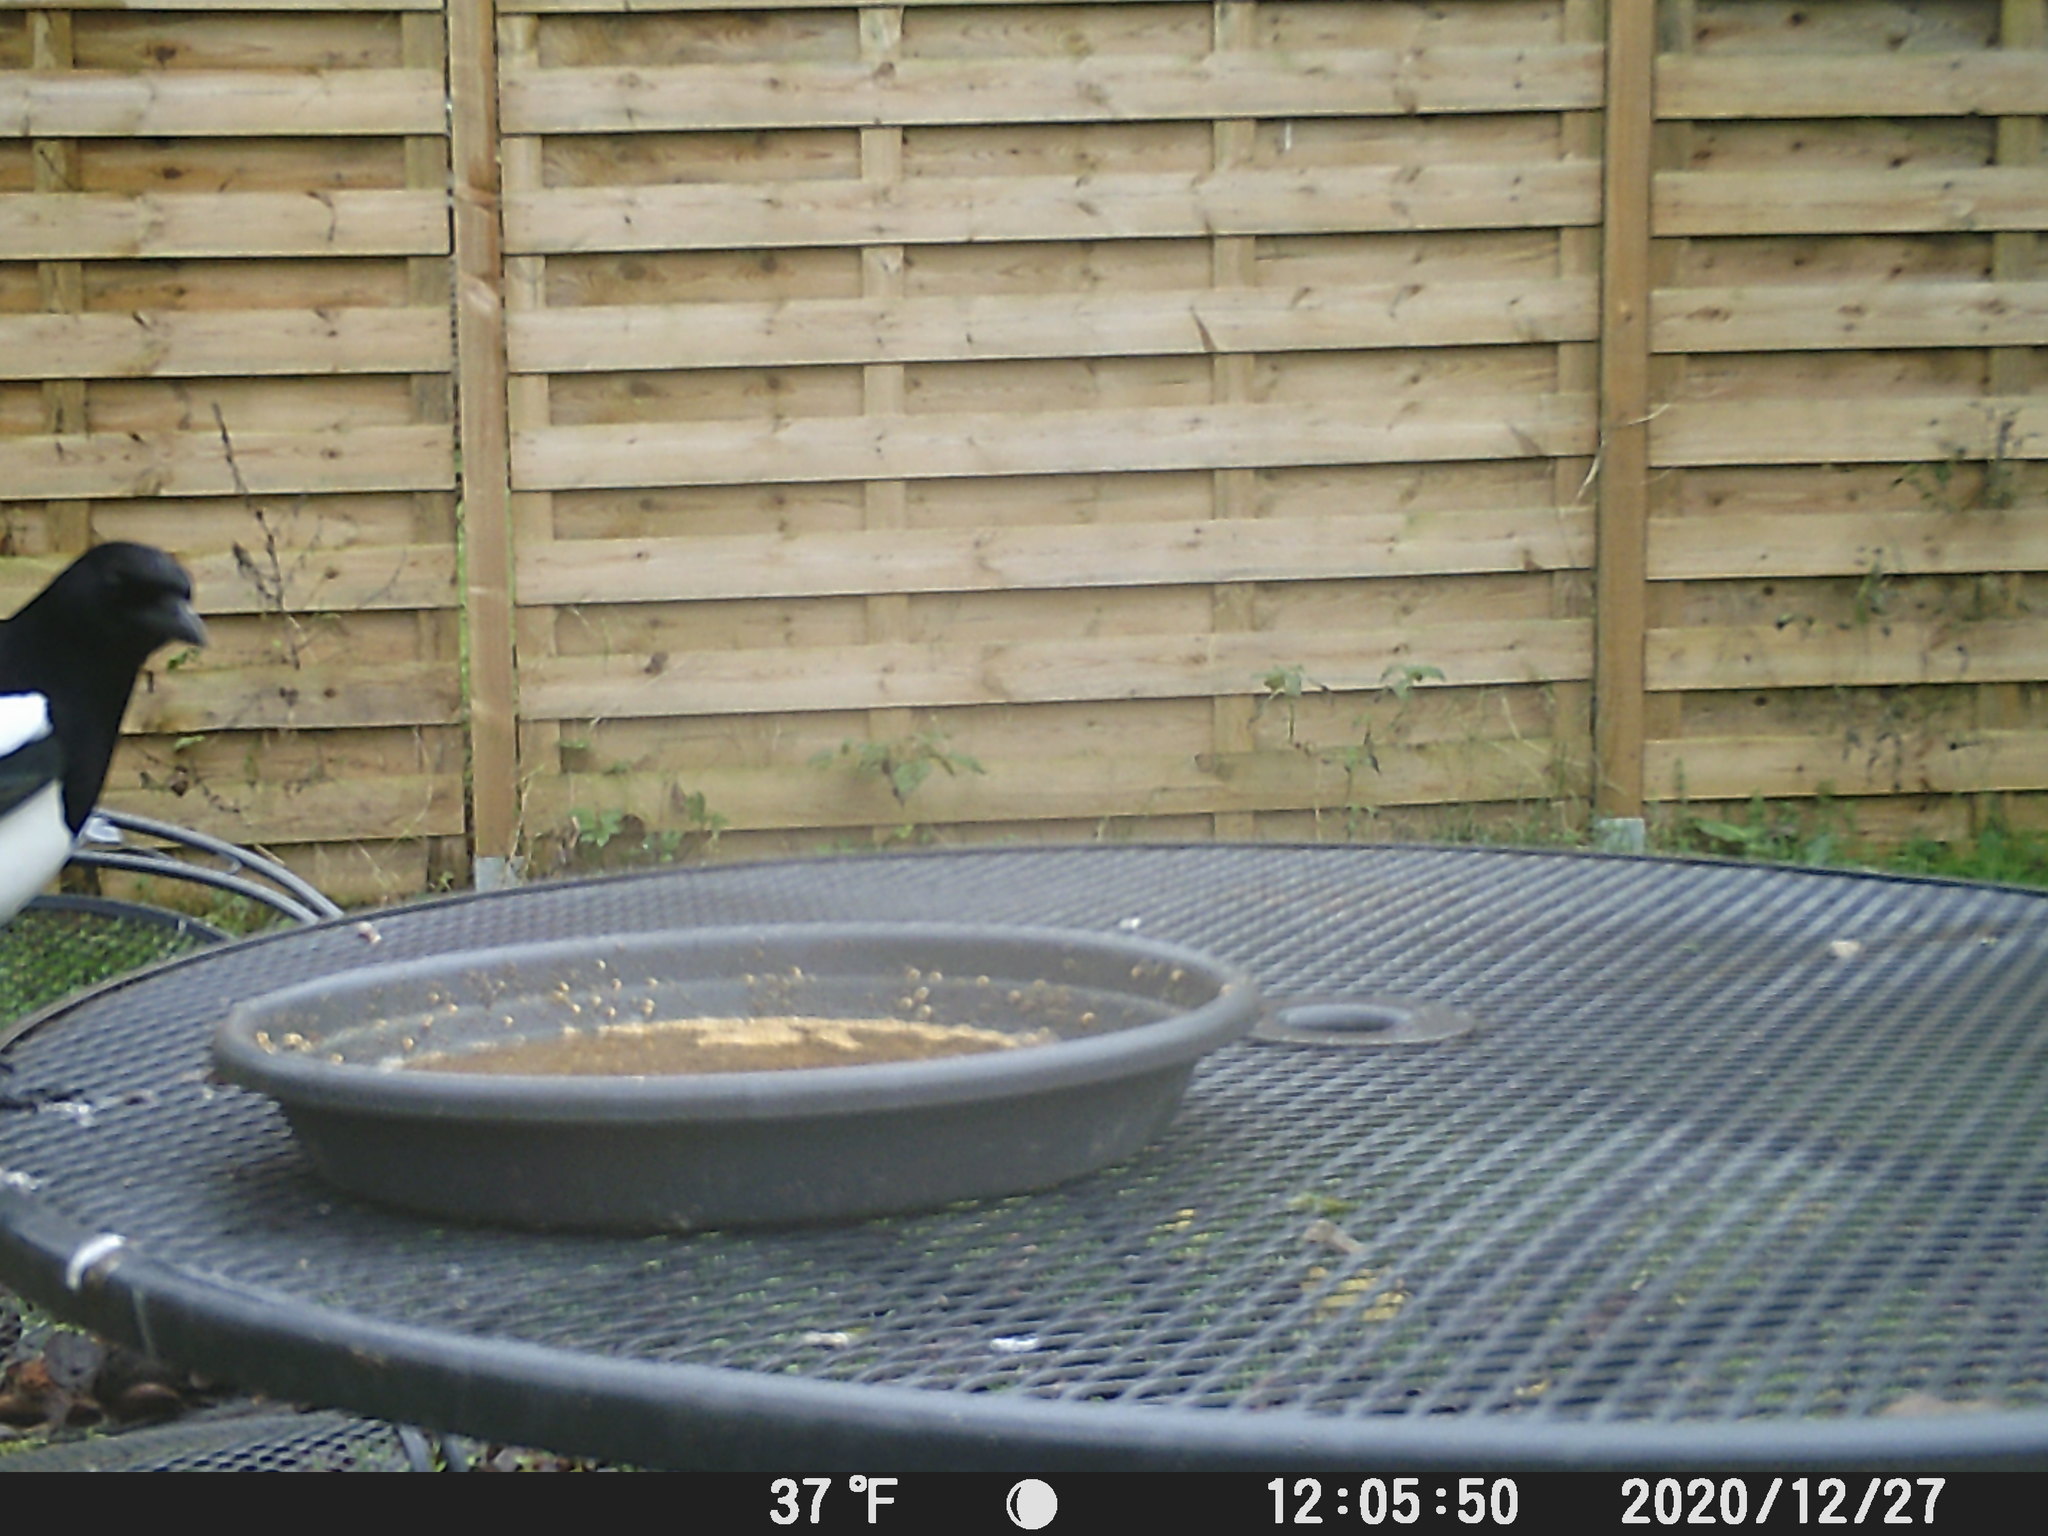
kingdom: Animalia
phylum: Chordata
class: Aves
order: Passeriformes
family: Corvidae
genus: Pica
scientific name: Pica pica
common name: Eurasian magpie
